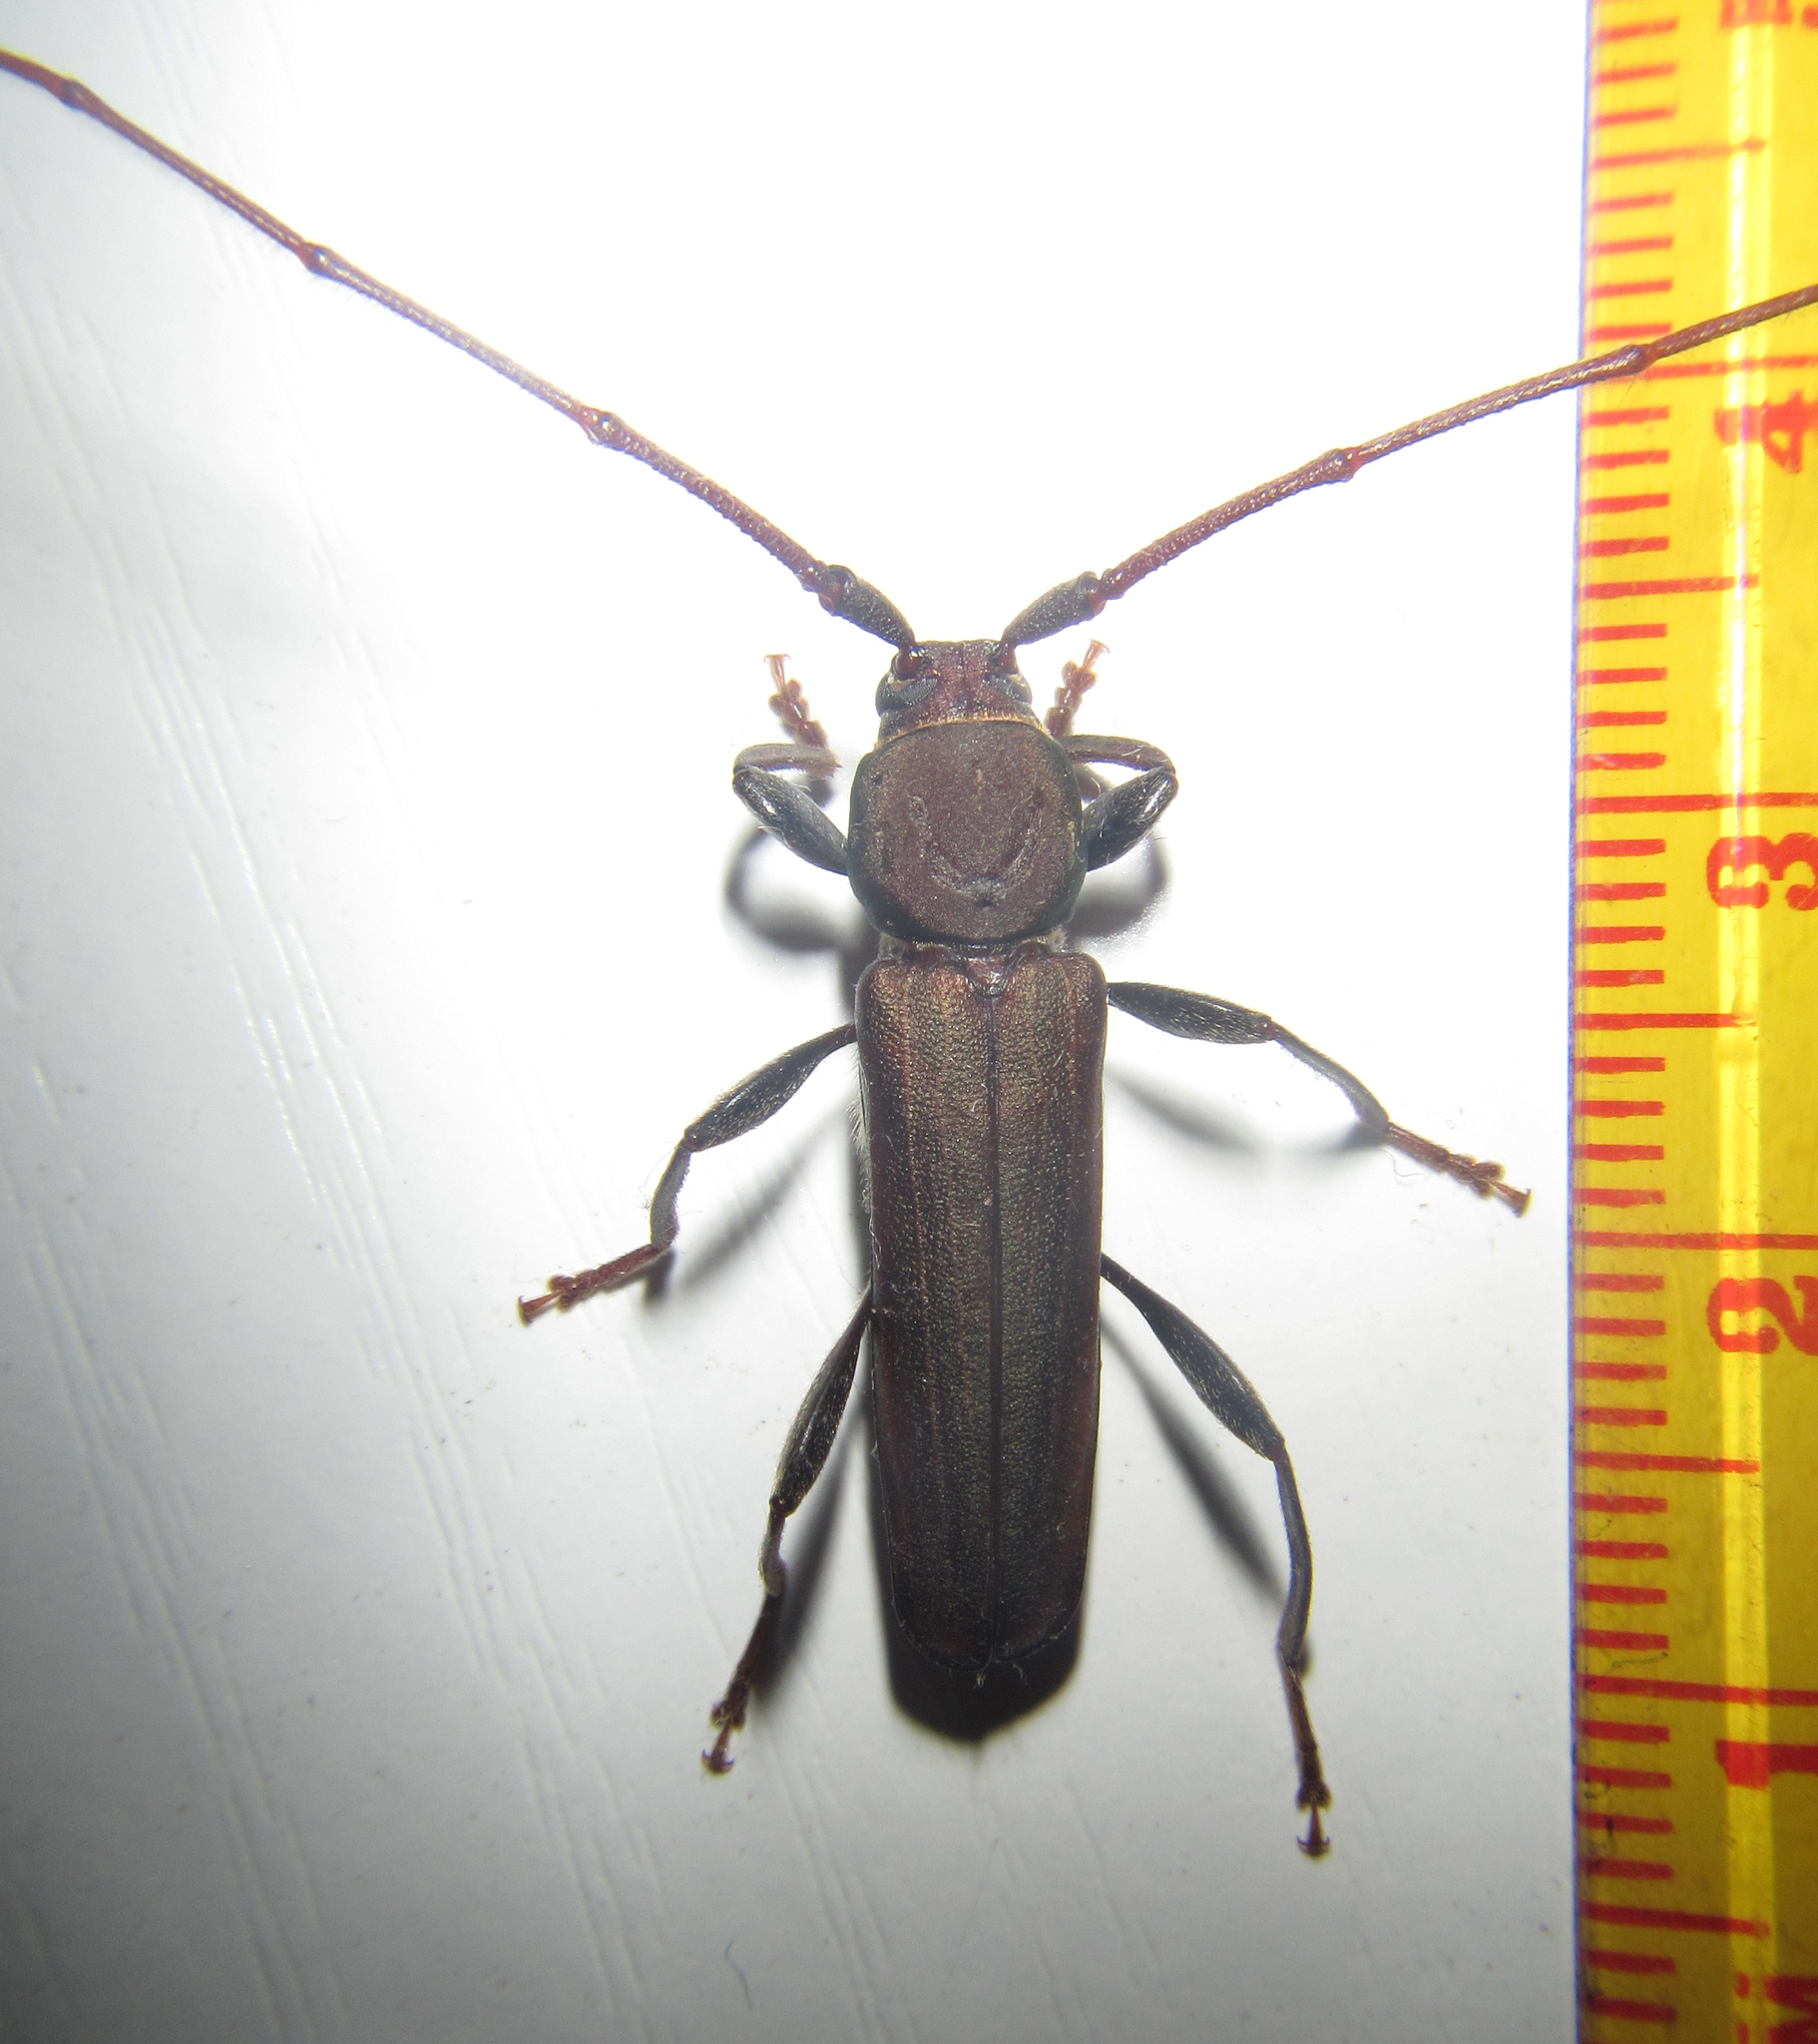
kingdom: Animalia
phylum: Arthropoda
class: Insecta
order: Coleoptera
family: Cerambycidae
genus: Xystrocera
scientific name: Xystrocera erosa
